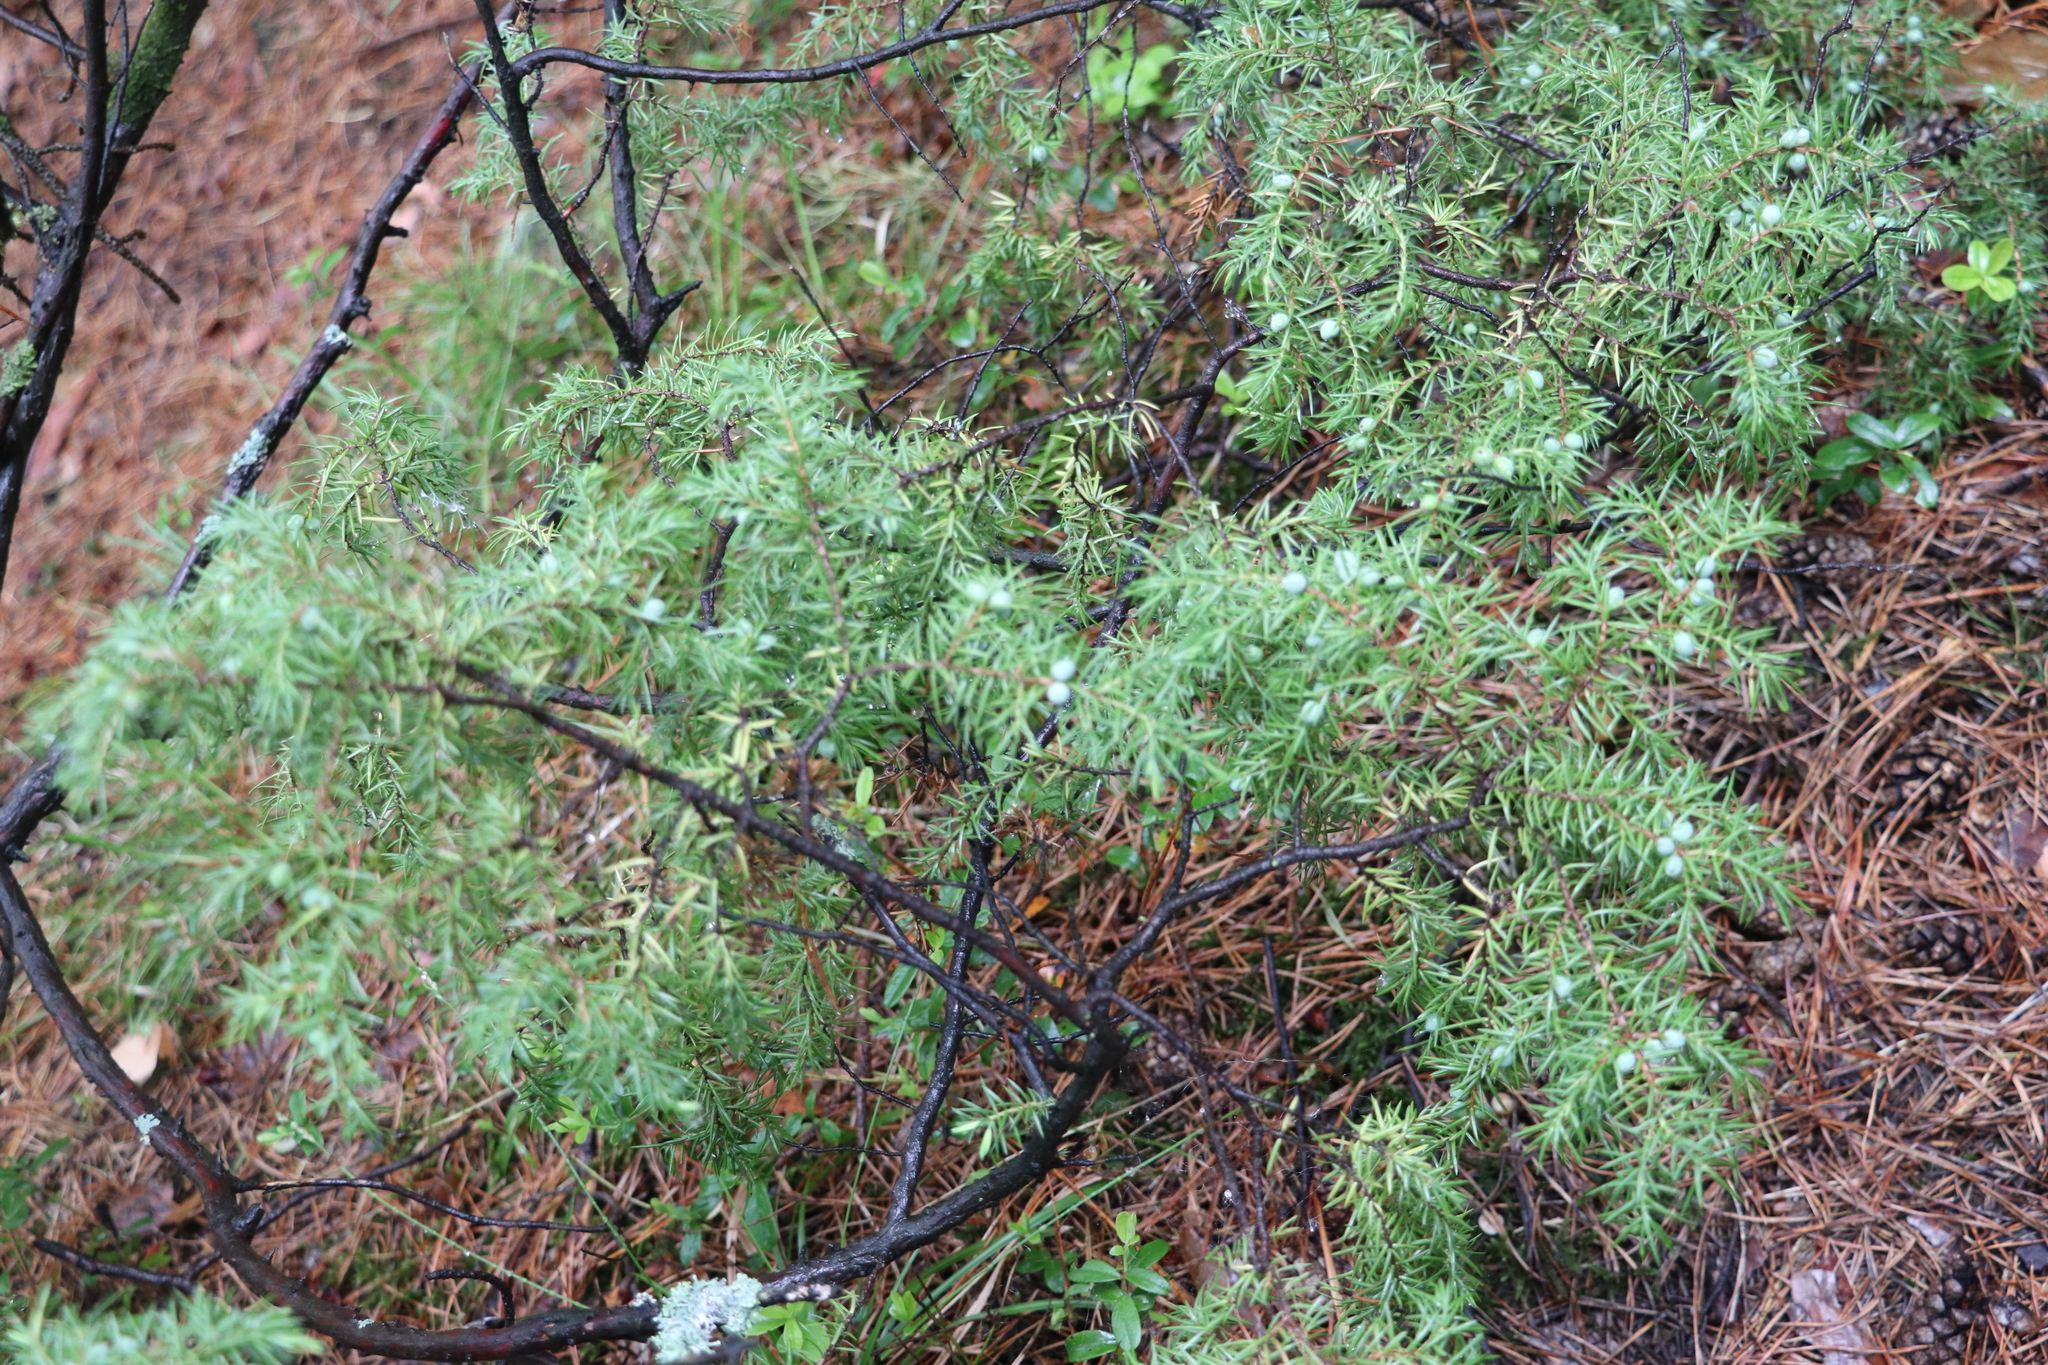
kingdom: Plantae
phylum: Tracheophyta
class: Pinopsida
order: Pinales
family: Cupressaceae
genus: Juniperus
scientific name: Juniperus communis
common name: Common juniper
